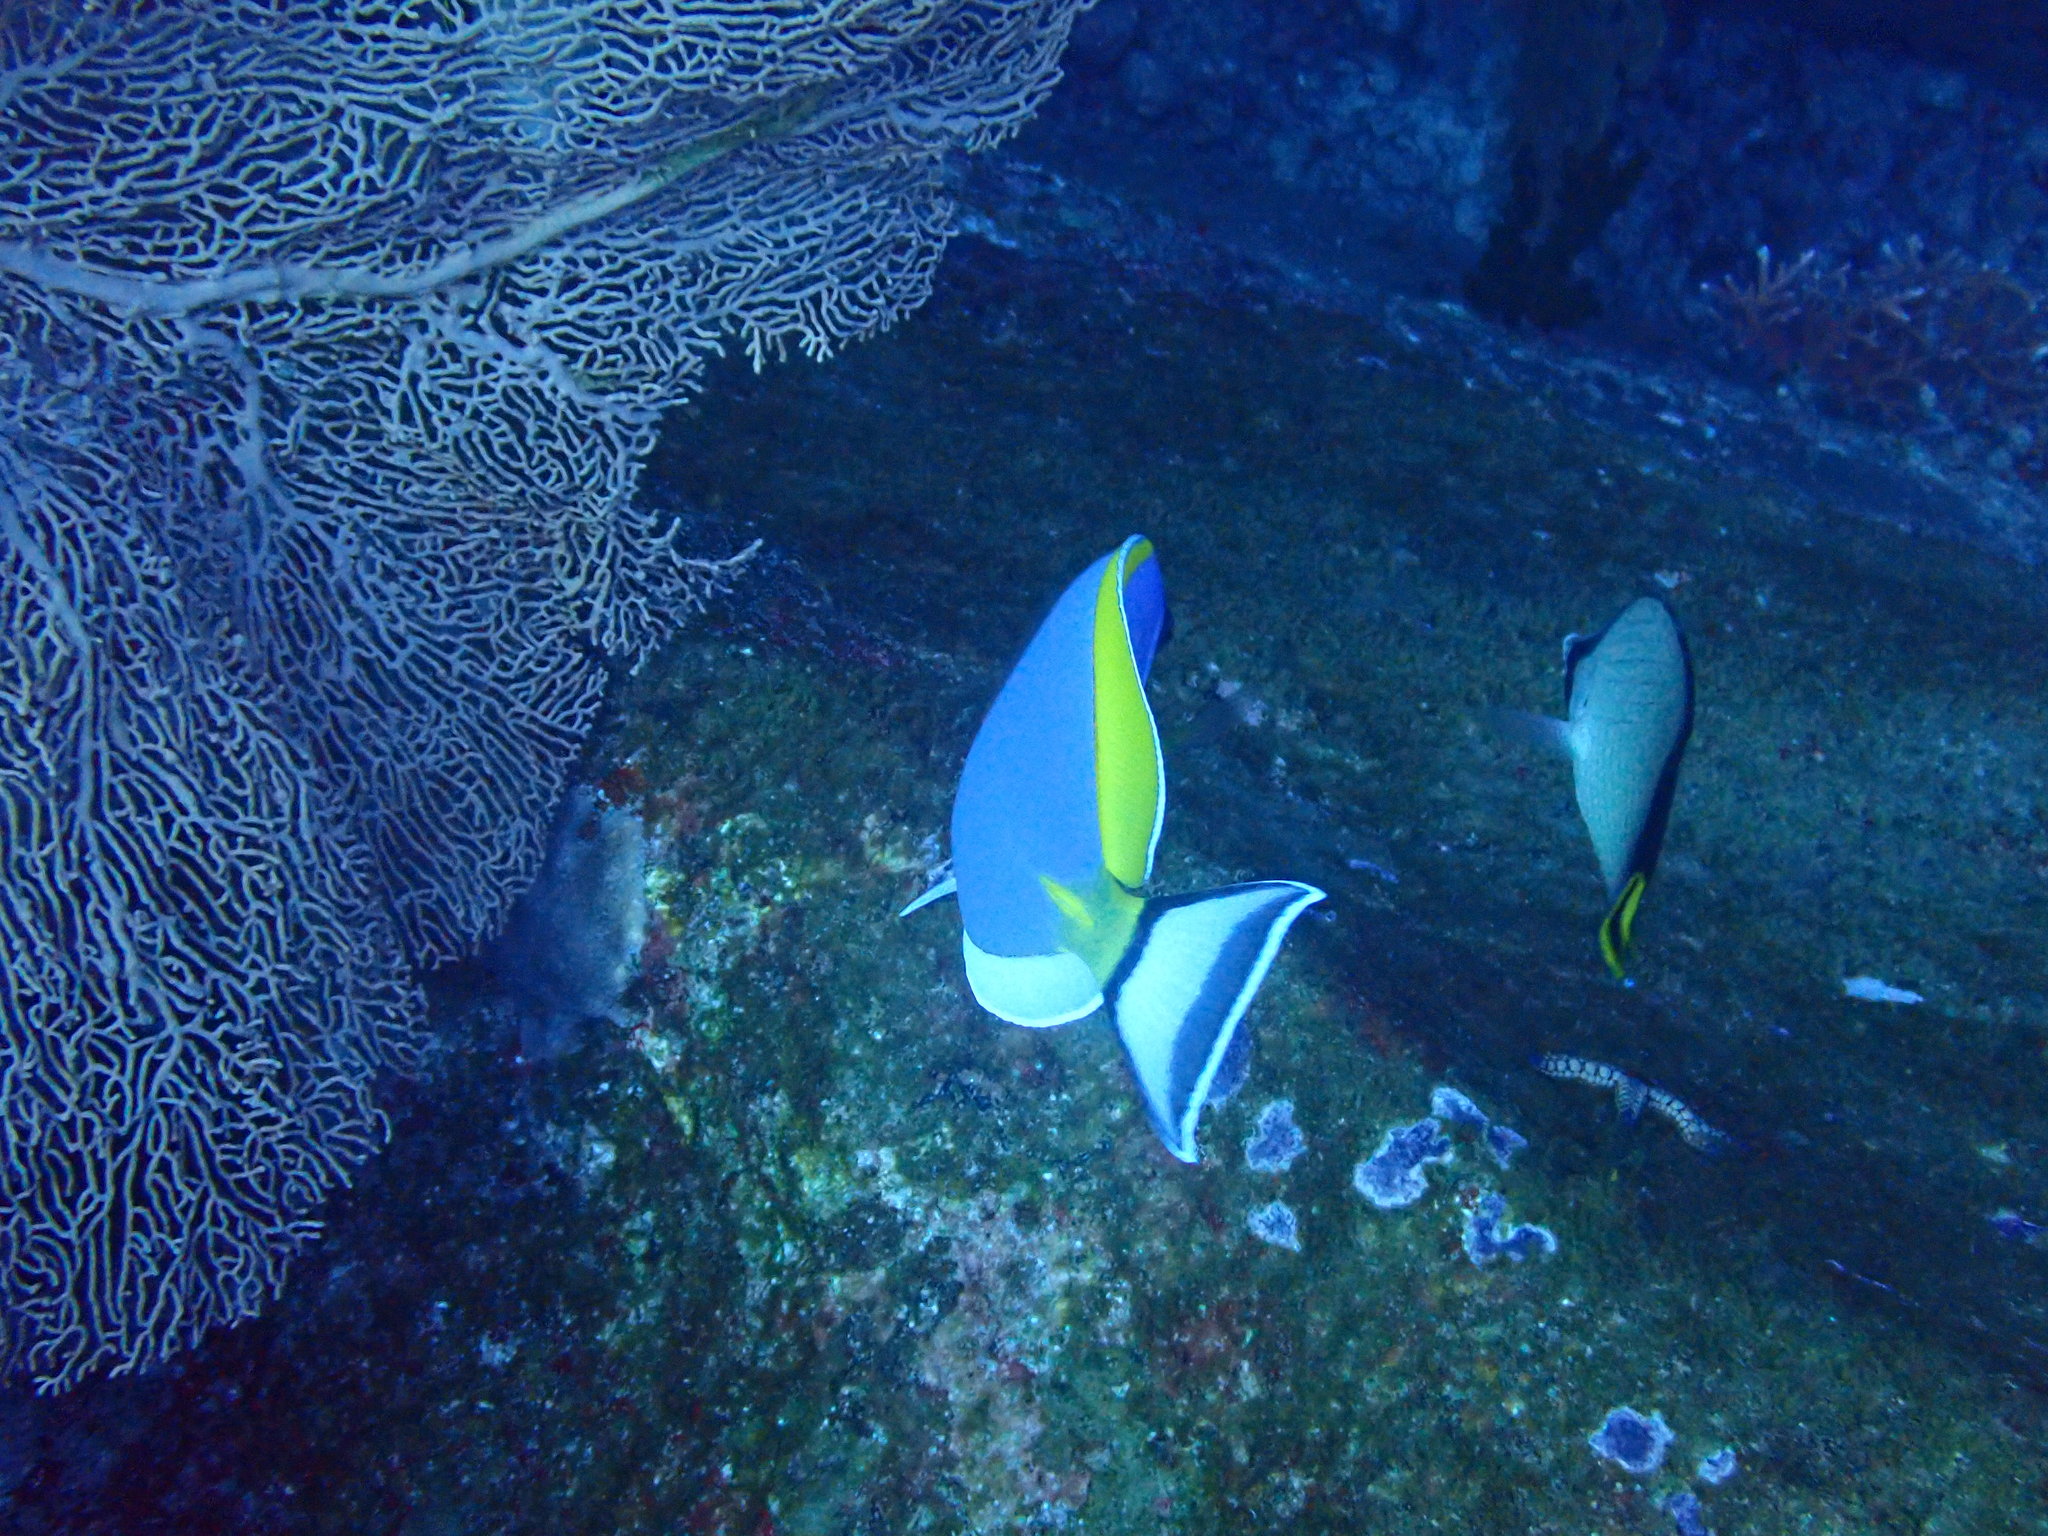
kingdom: Animalia
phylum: Chordata
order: Perciformes
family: Acanthuridae
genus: Acanthurus
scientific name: Acanthurus leucosternon
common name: Blue surgeonfish
